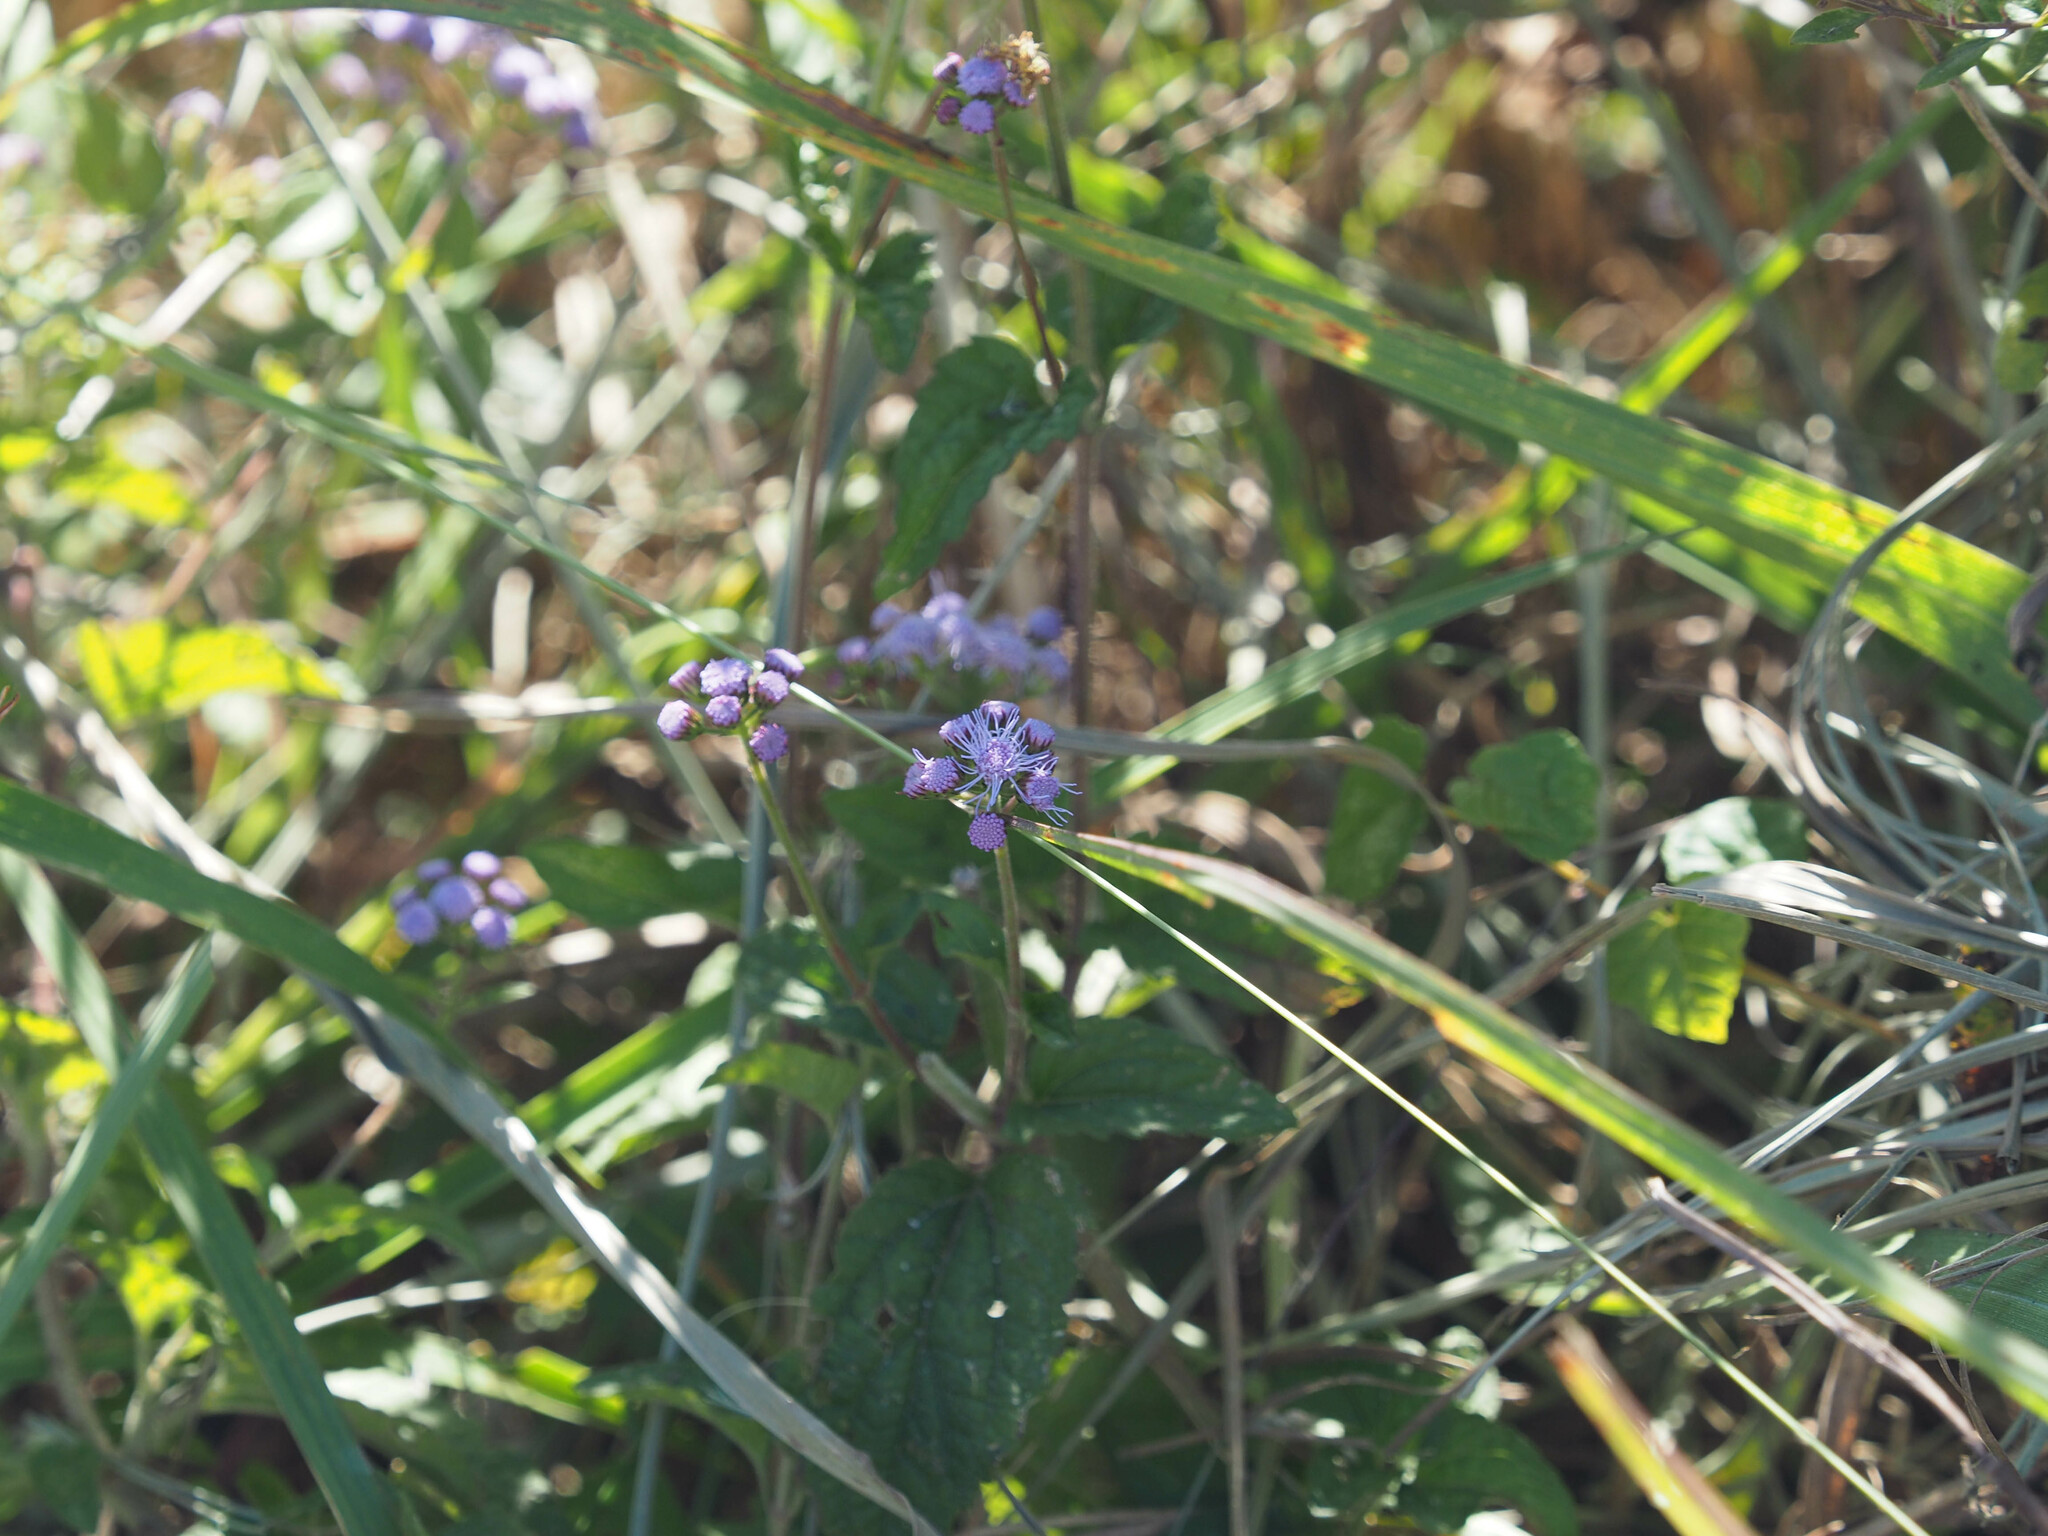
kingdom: Plantae
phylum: Tracheophyta
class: Magnoliopsida
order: Asterales
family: Asteraceae
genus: Conoclinium
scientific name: Conoclinium coelestinum
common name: Blue mistflower
